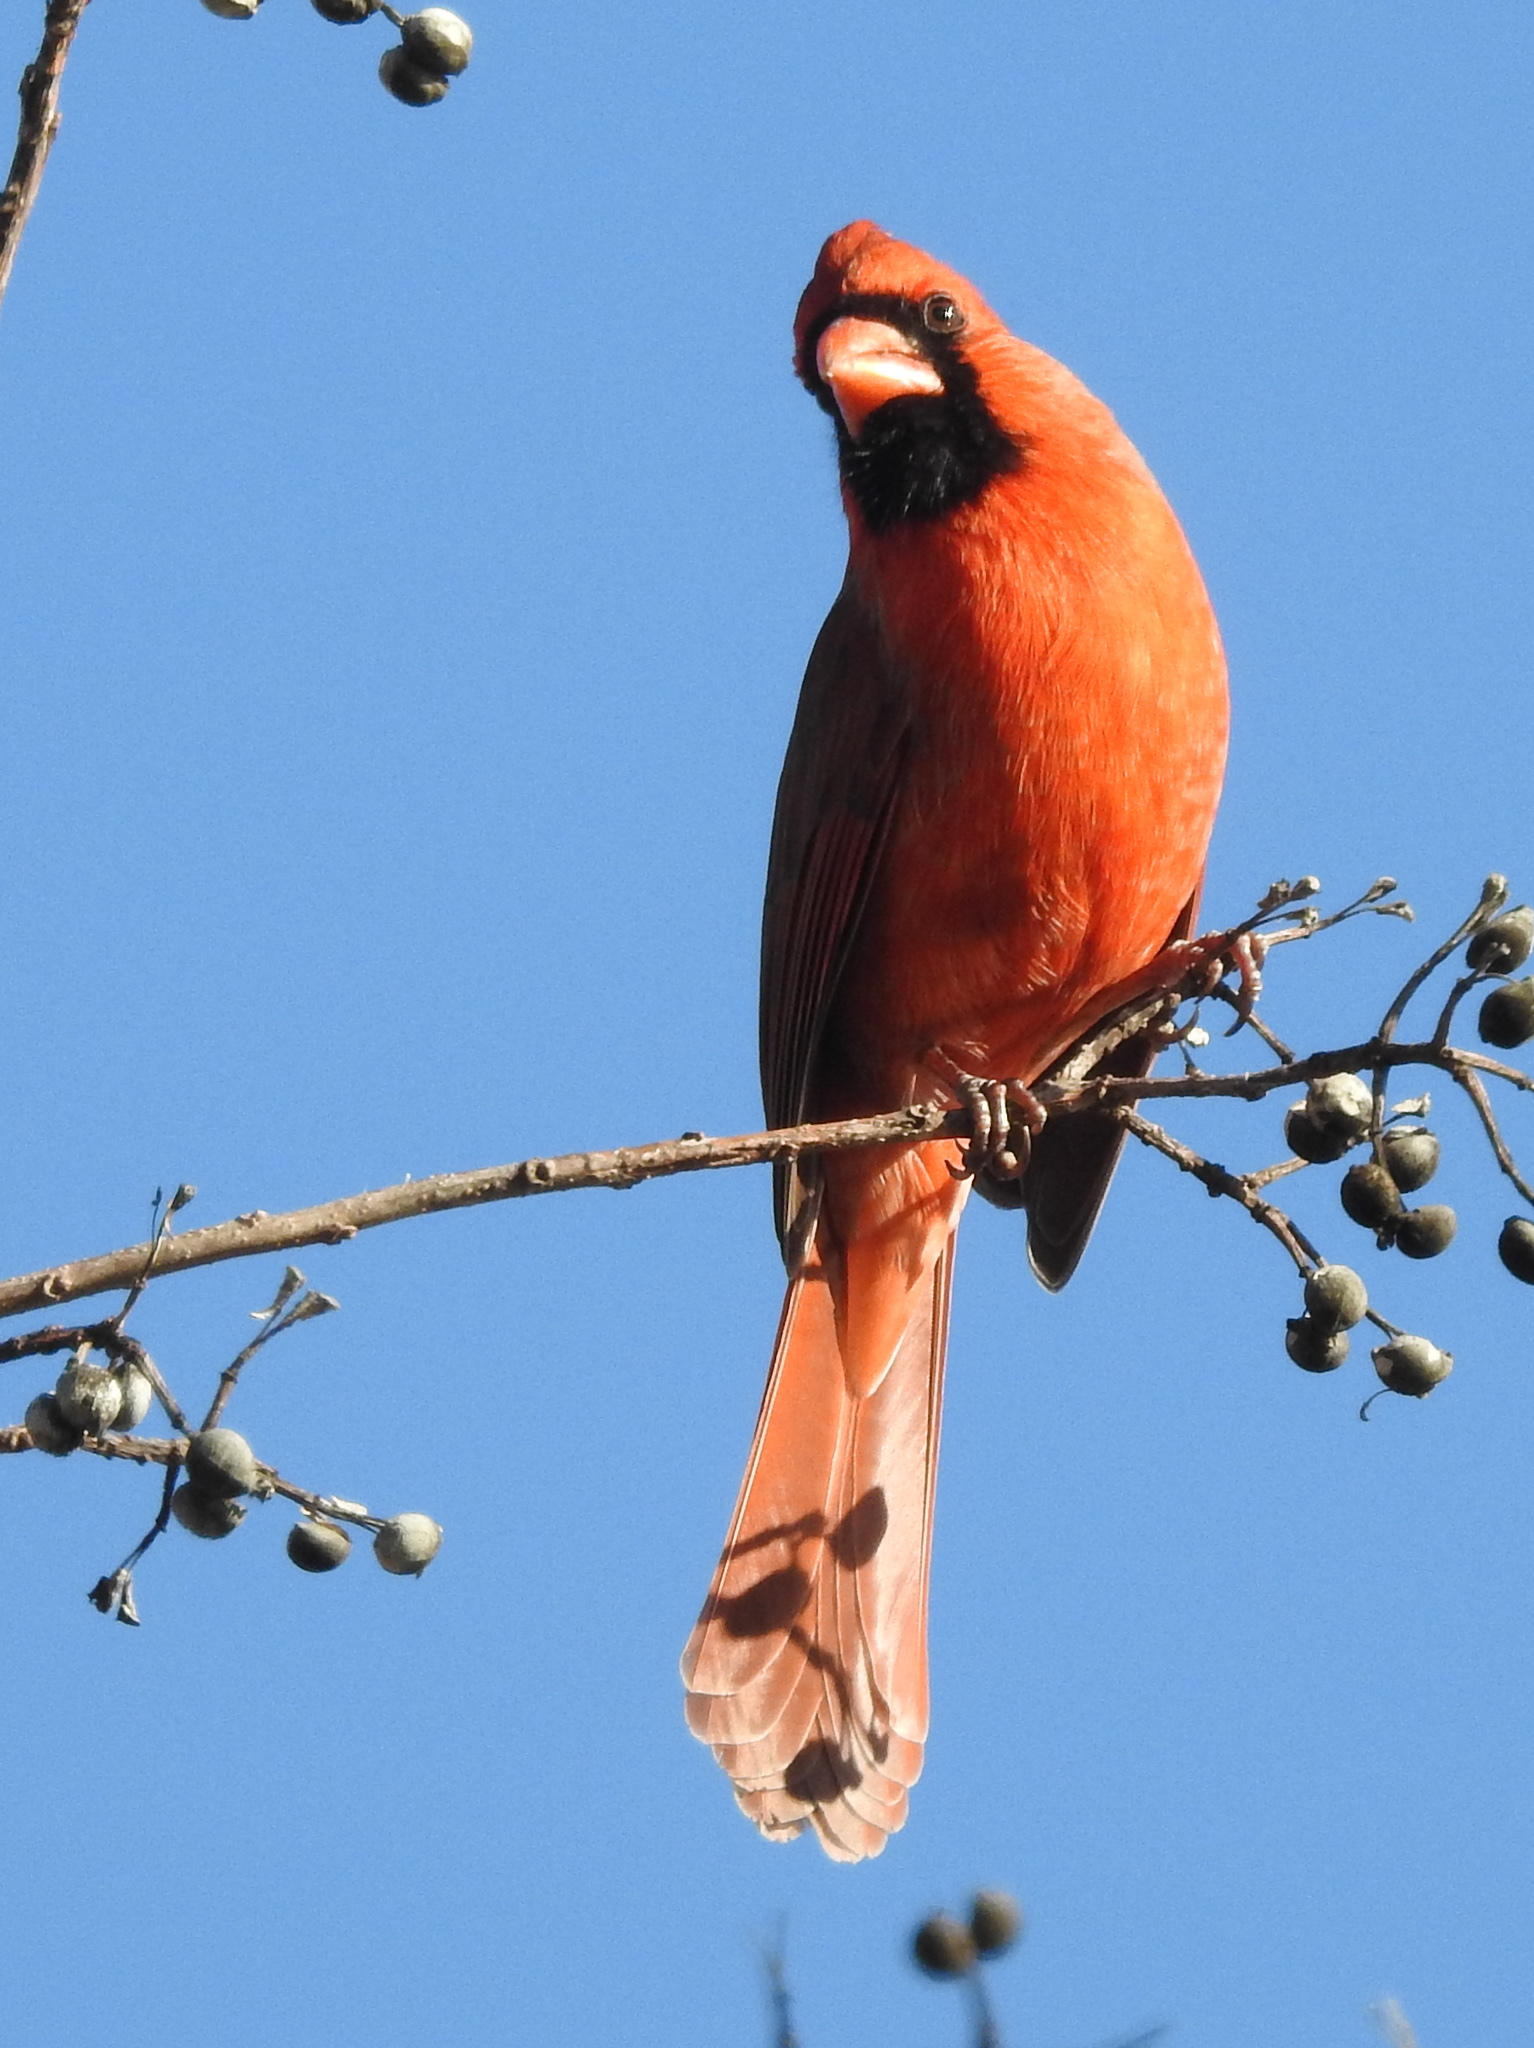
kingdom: Animalia
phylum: Chordata
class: Aves
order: Passeriformes
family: Cardinalidae
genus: Cardinalis
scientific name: Cardinalis cardinalis
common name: Northern cardinal
